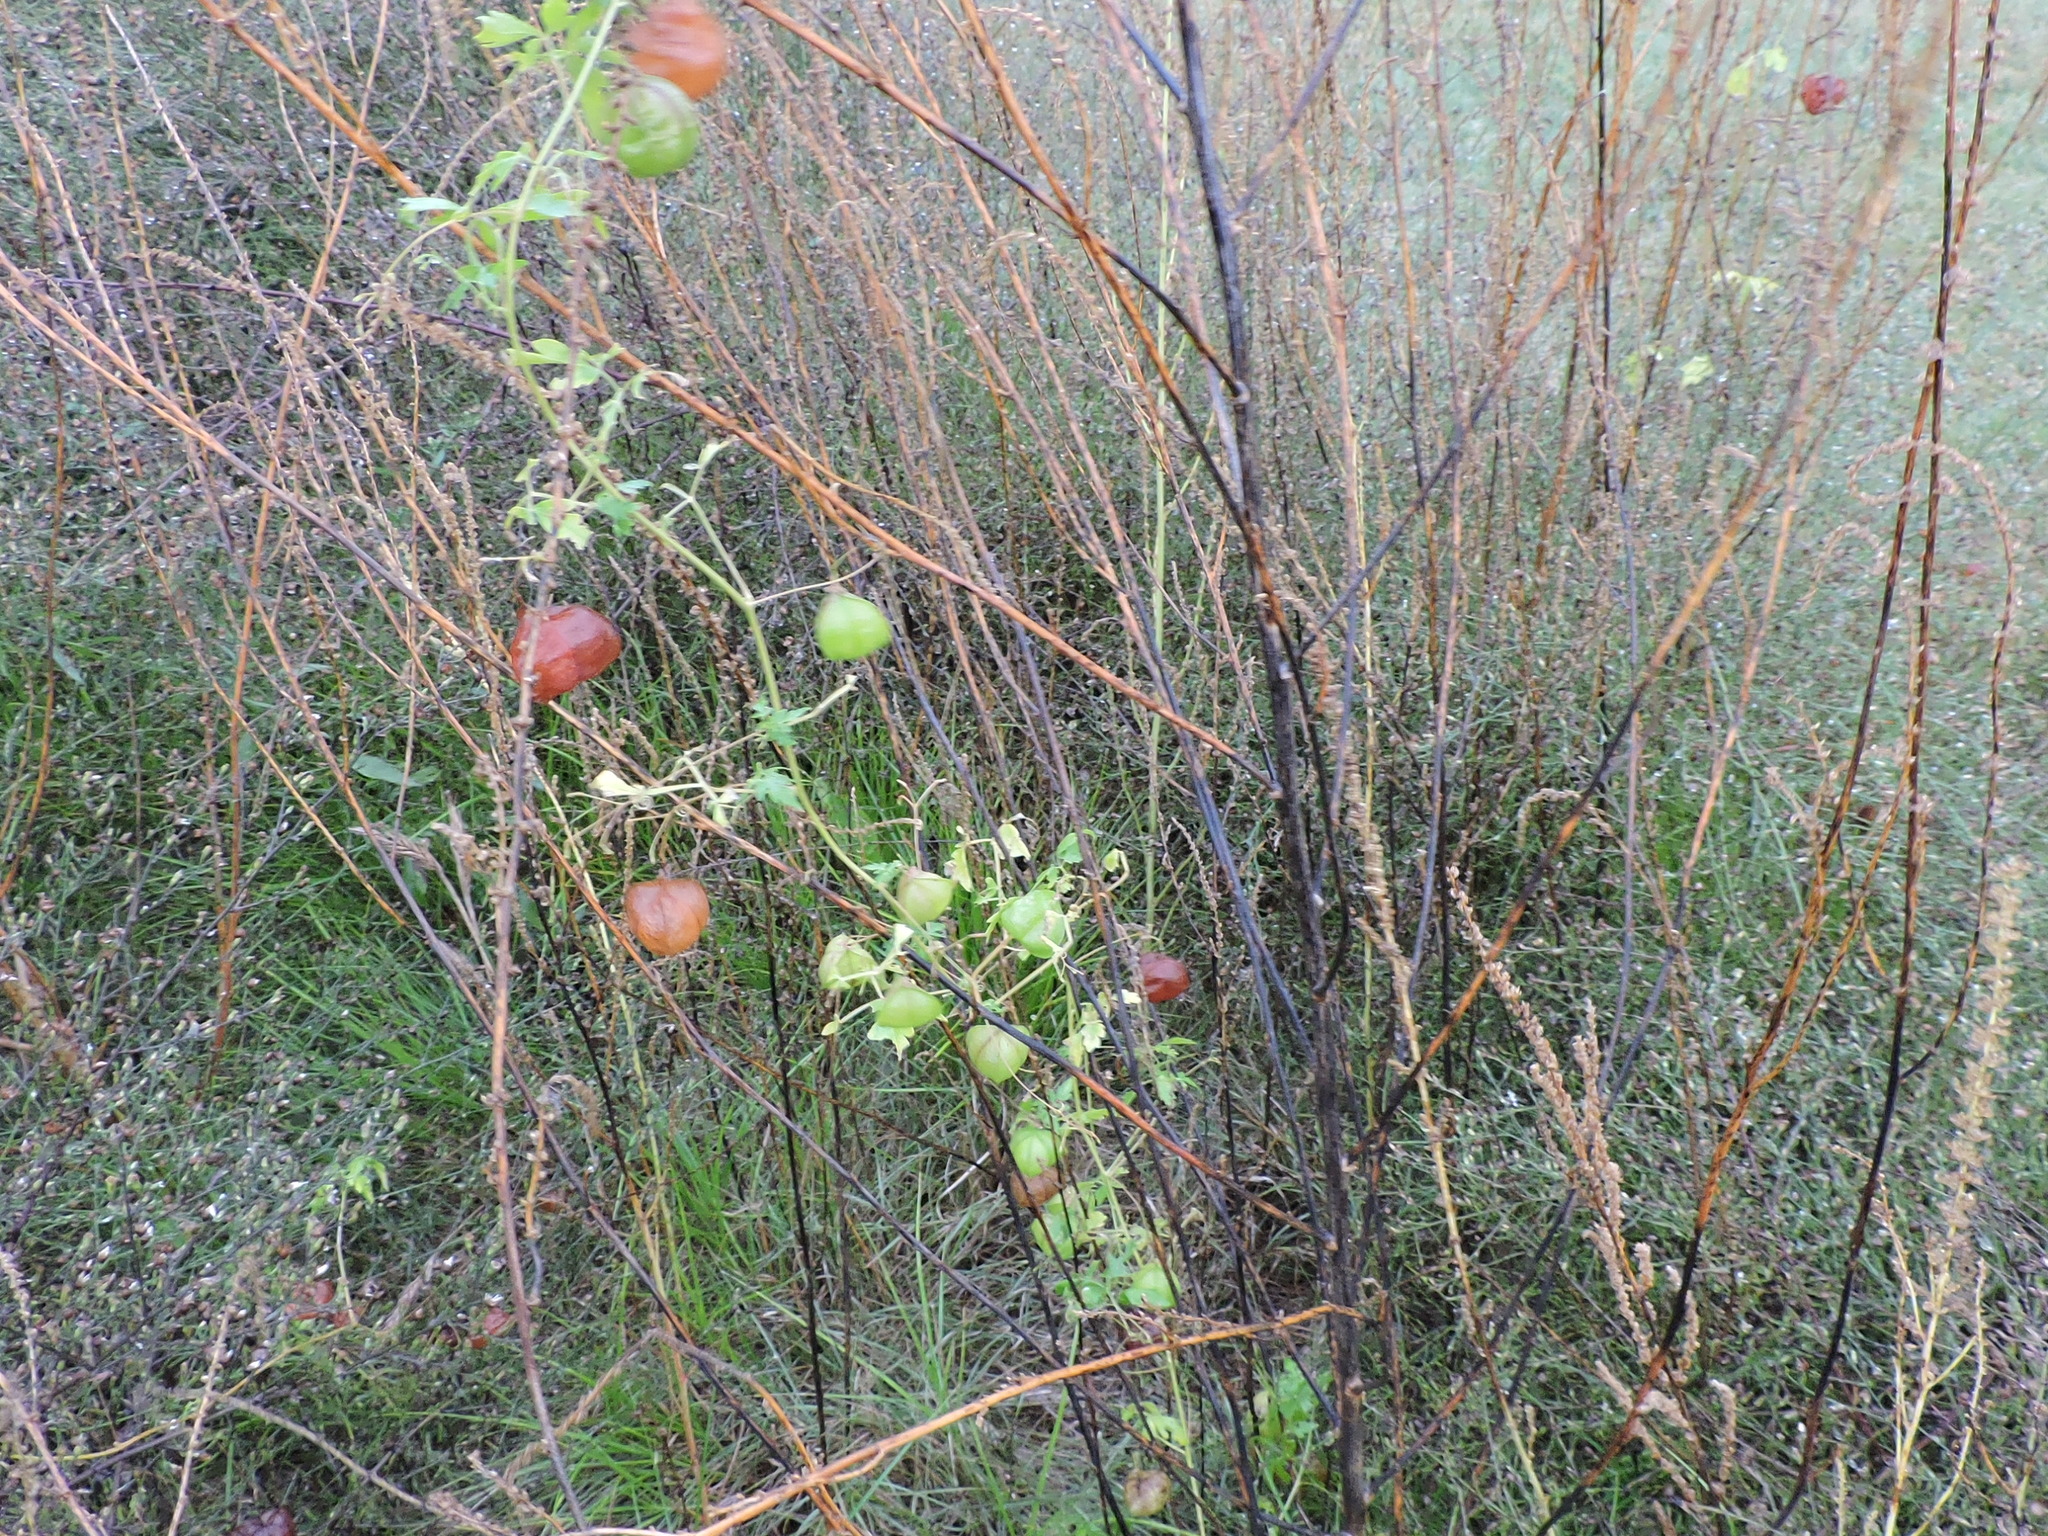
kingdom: Plantae
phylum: Tracheophyta
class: Magnoliopsida
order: Sapindales
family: Sapindaceae
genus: Cardiospermum
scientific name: Cardiospermum halicacabum
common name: Balloon vine
